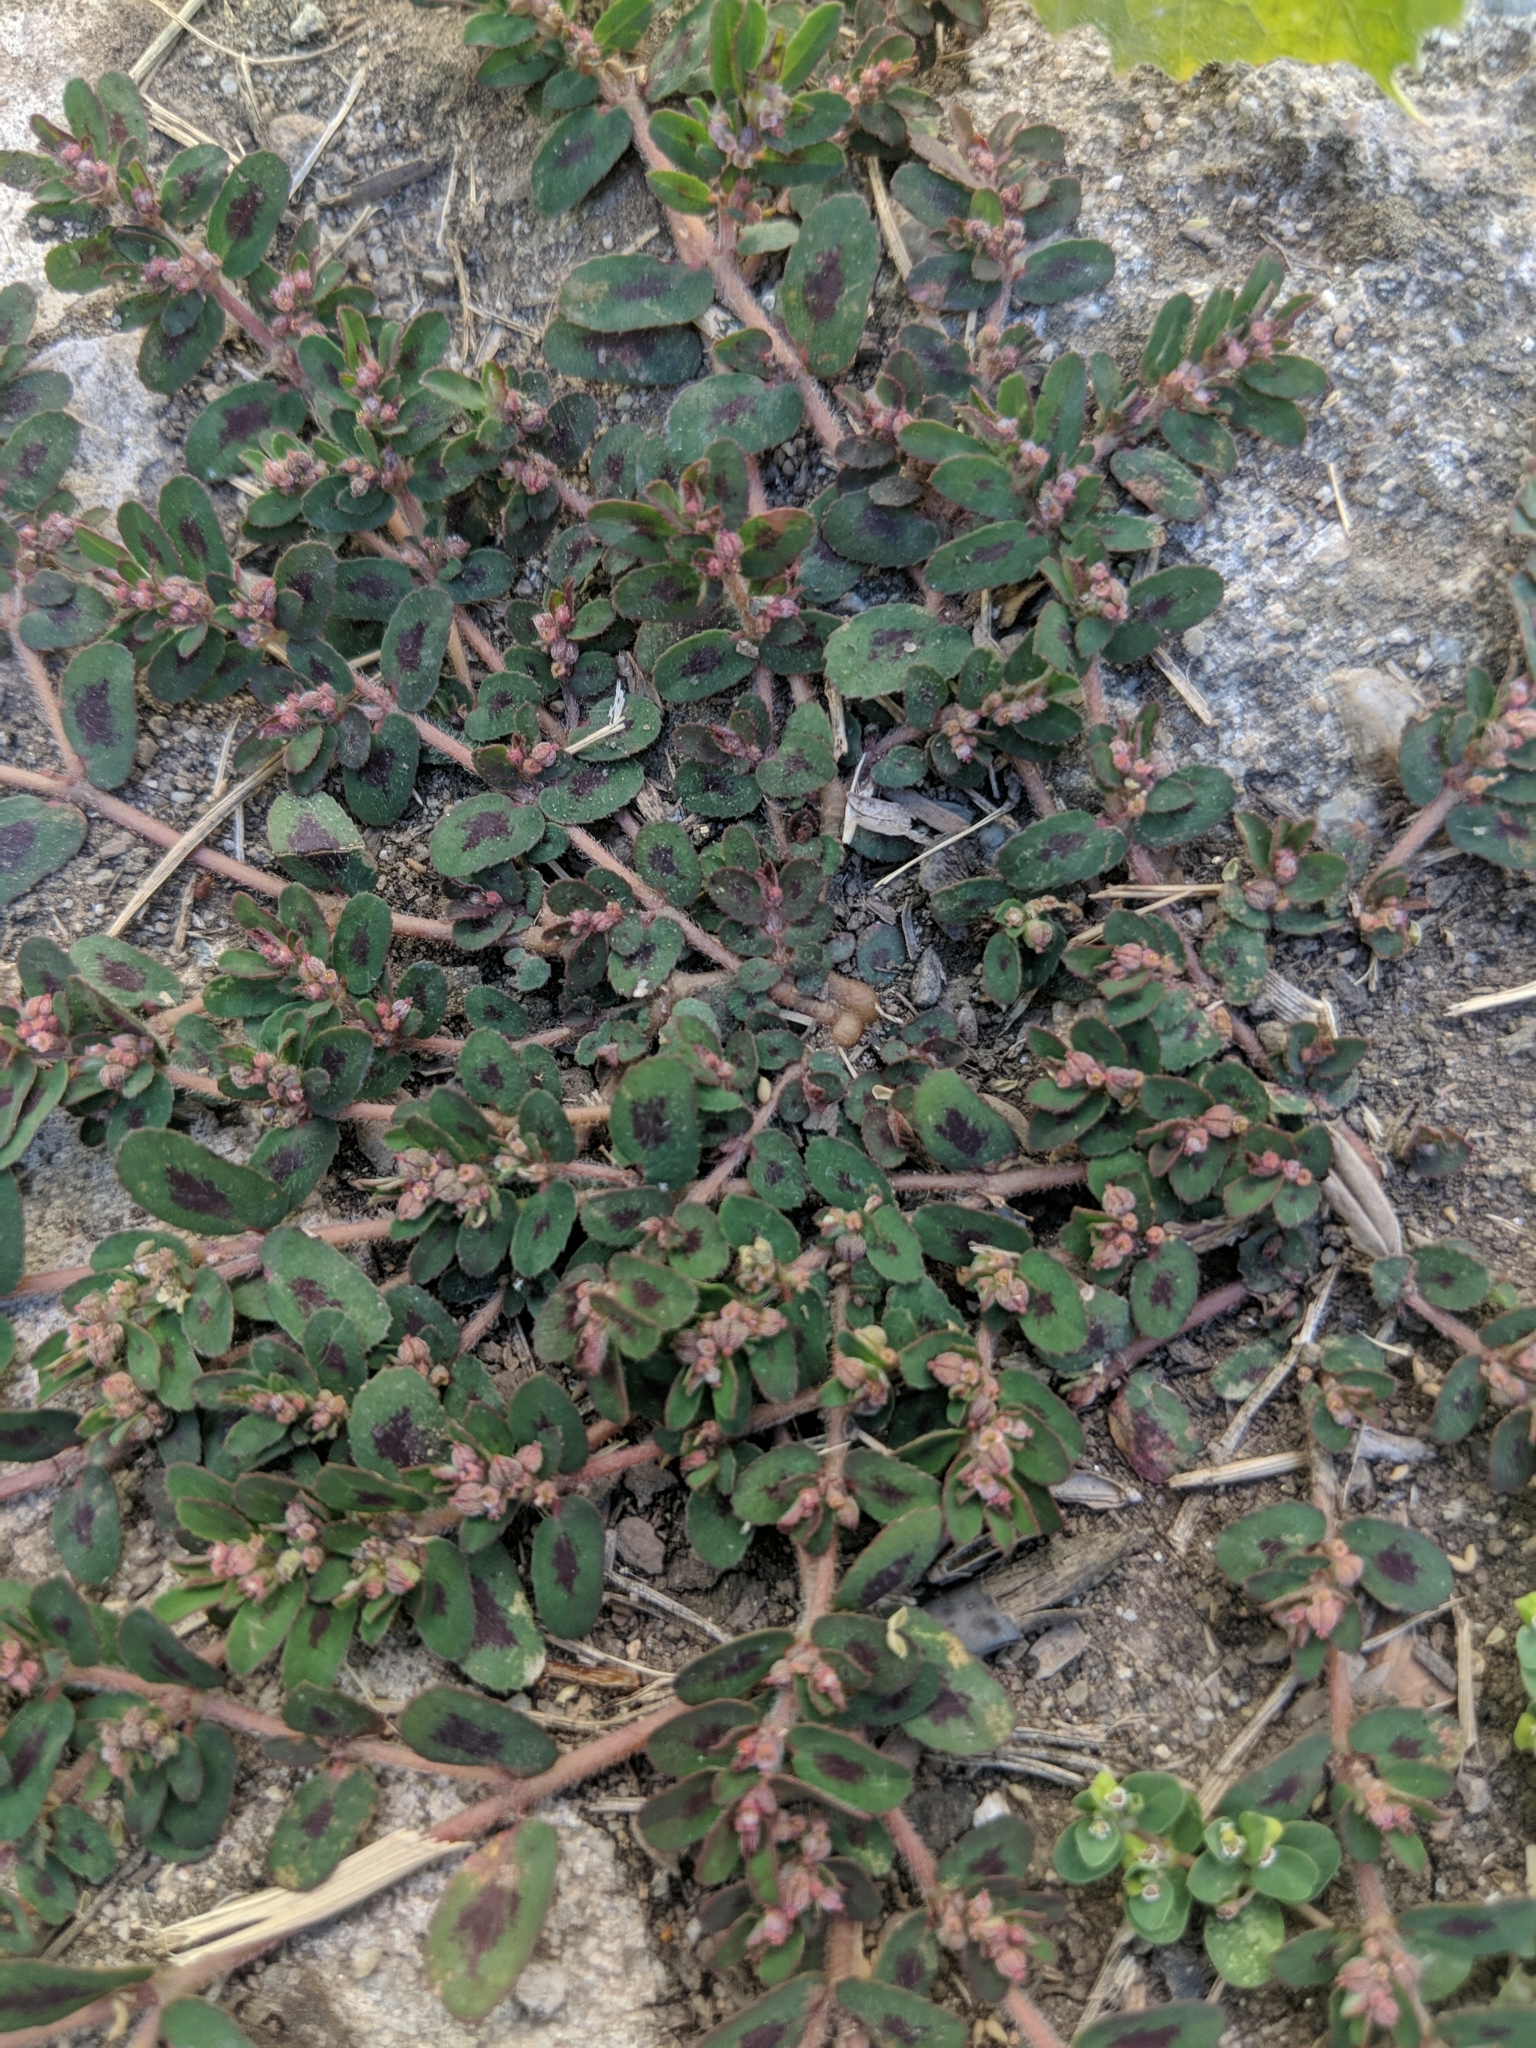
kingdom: Plantae
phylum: Tracheophyta
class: Magnoliopsida
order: Malpighiales
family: Euphorbiaceae
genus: Euphorbia
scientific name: Euphorbia maculata
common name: Spotted spurge
